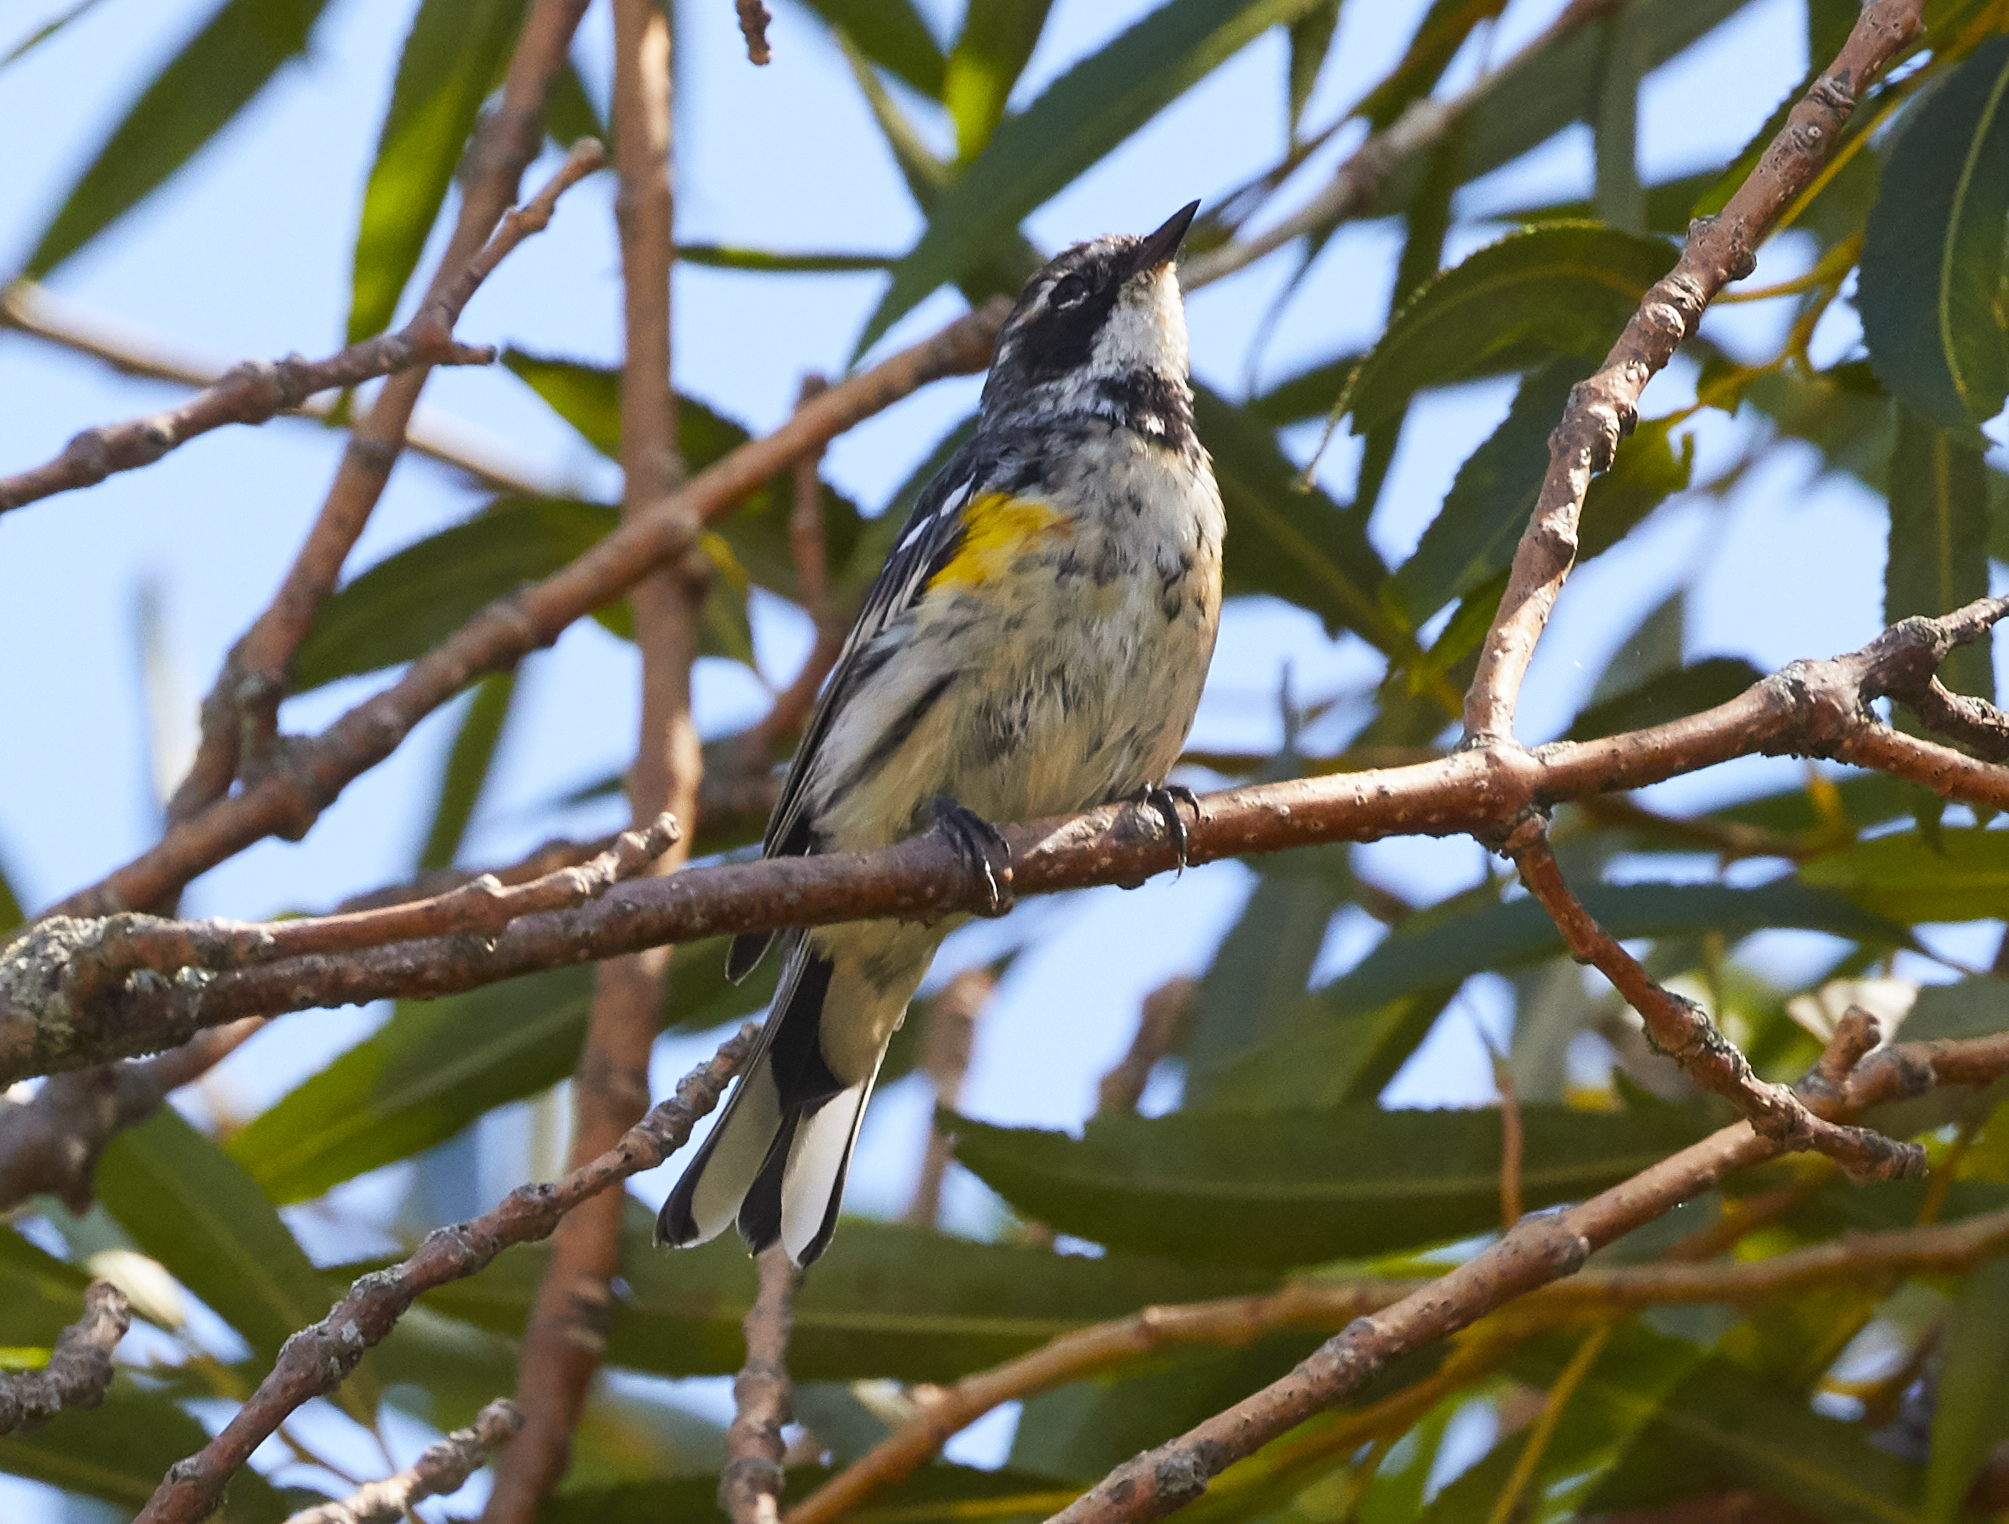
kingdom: Animalia
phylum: Chordata
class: Aves
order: Passeriformes
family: Parulidae
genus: Setophaga
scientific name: Setophaga coronata
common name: Myrtle warbler
